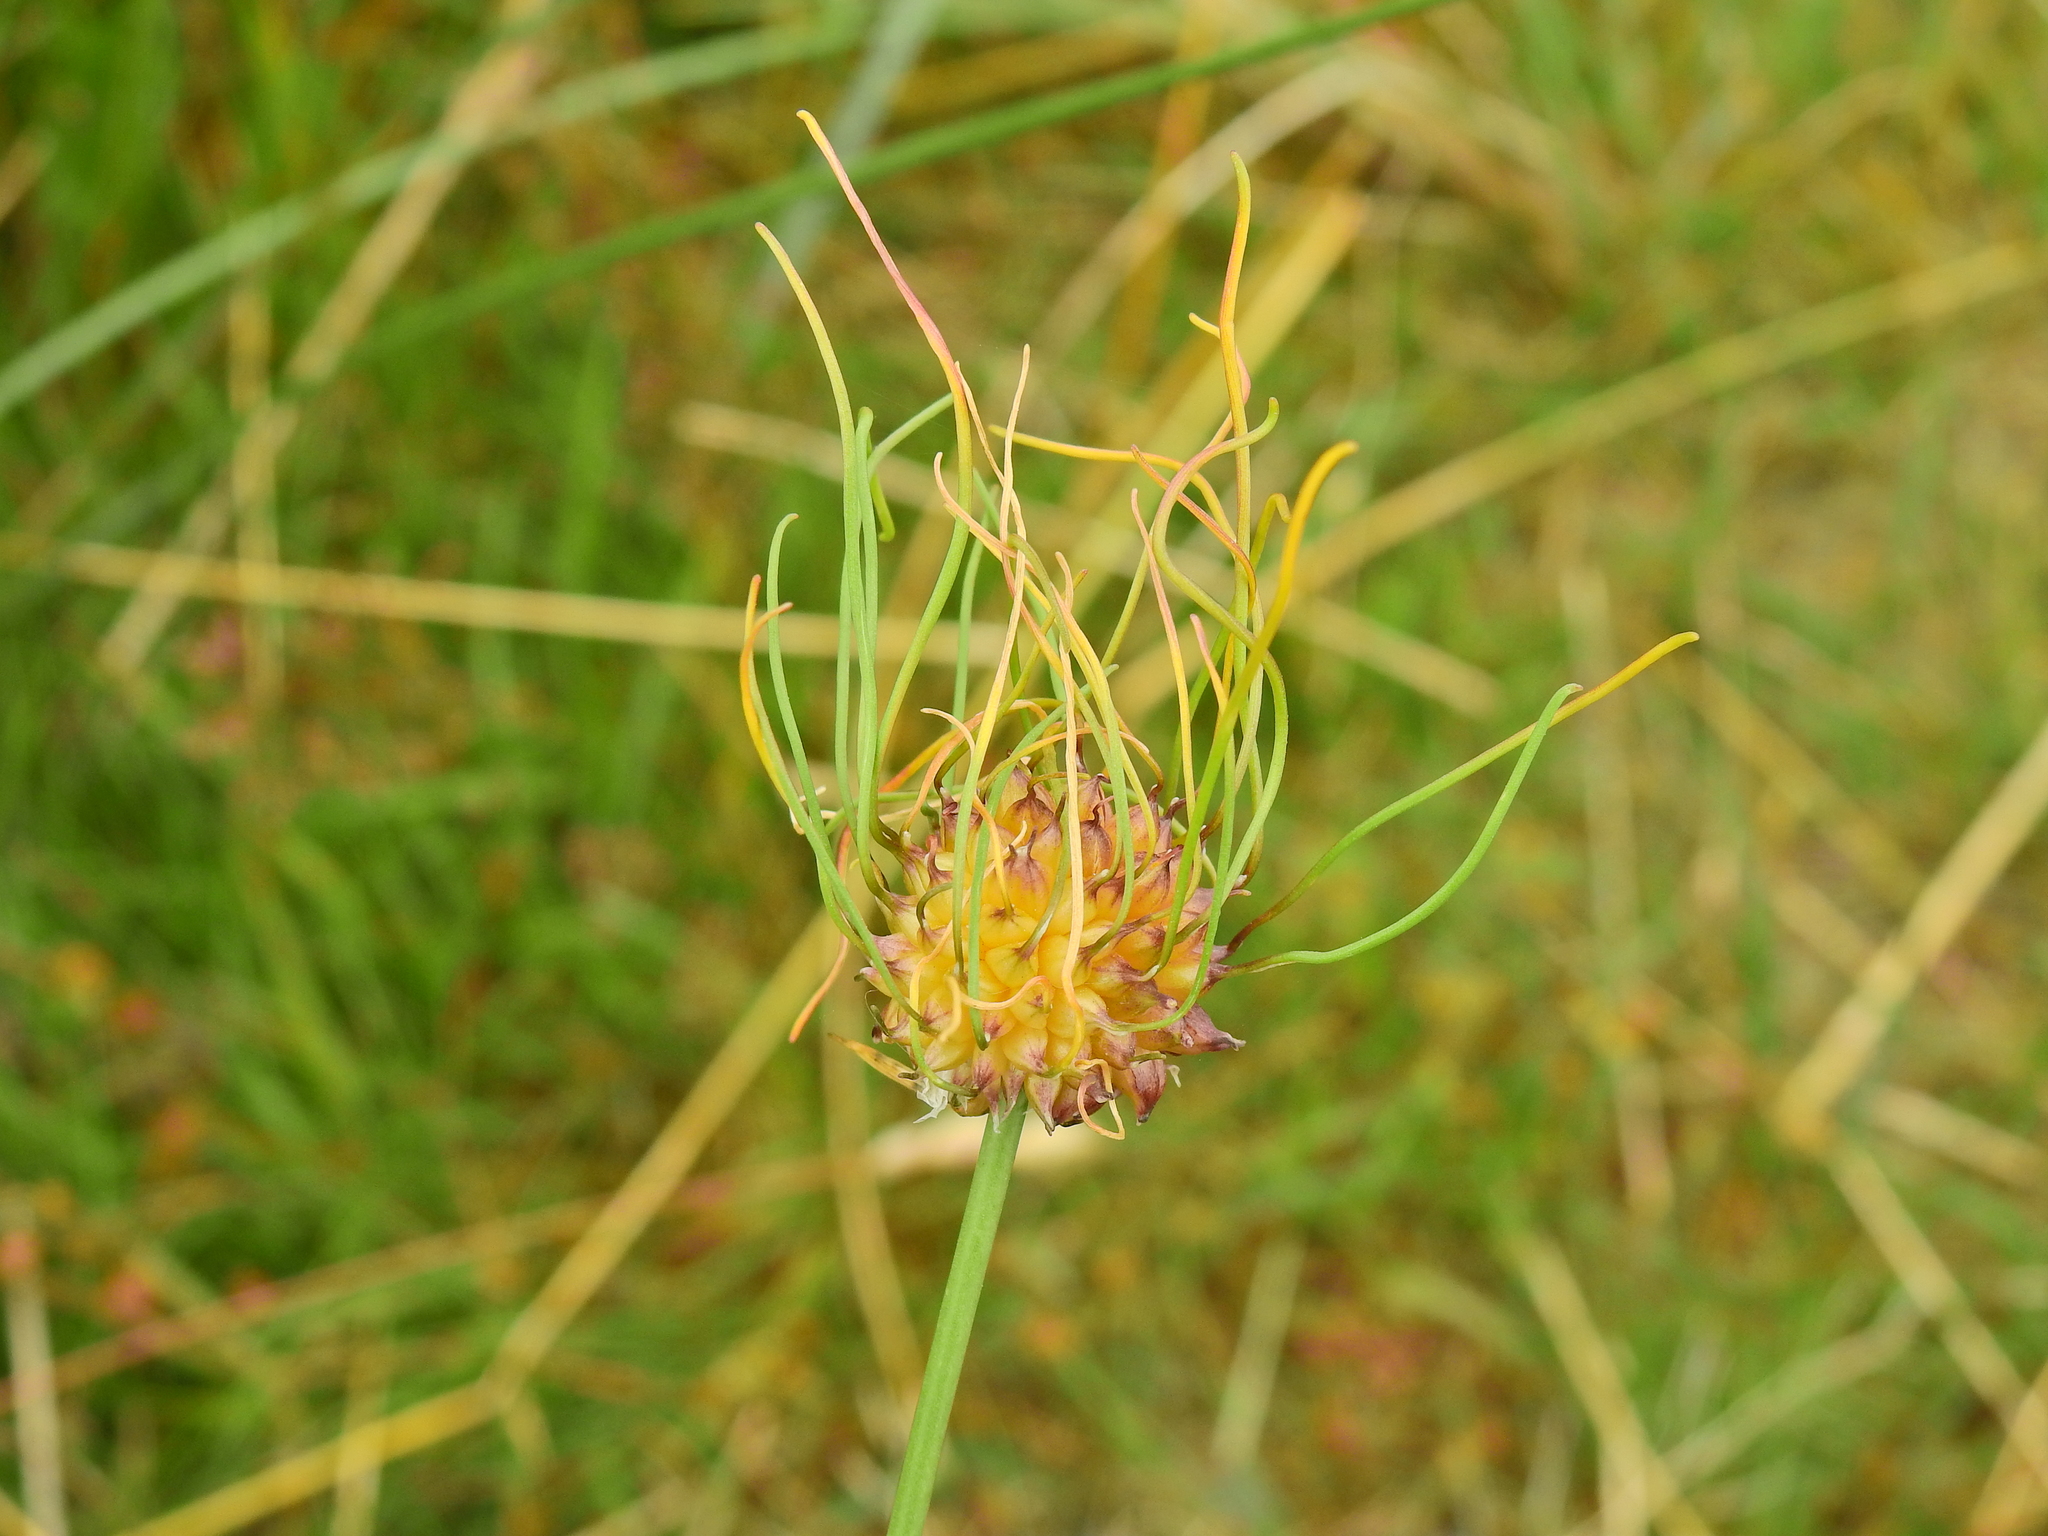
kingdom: Plantae
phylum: Tracheophyta
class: Liliopsida
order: Asparagales
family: Amaryllidaceae
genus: Allium
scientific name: Allium vineale
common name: Crow garlic
